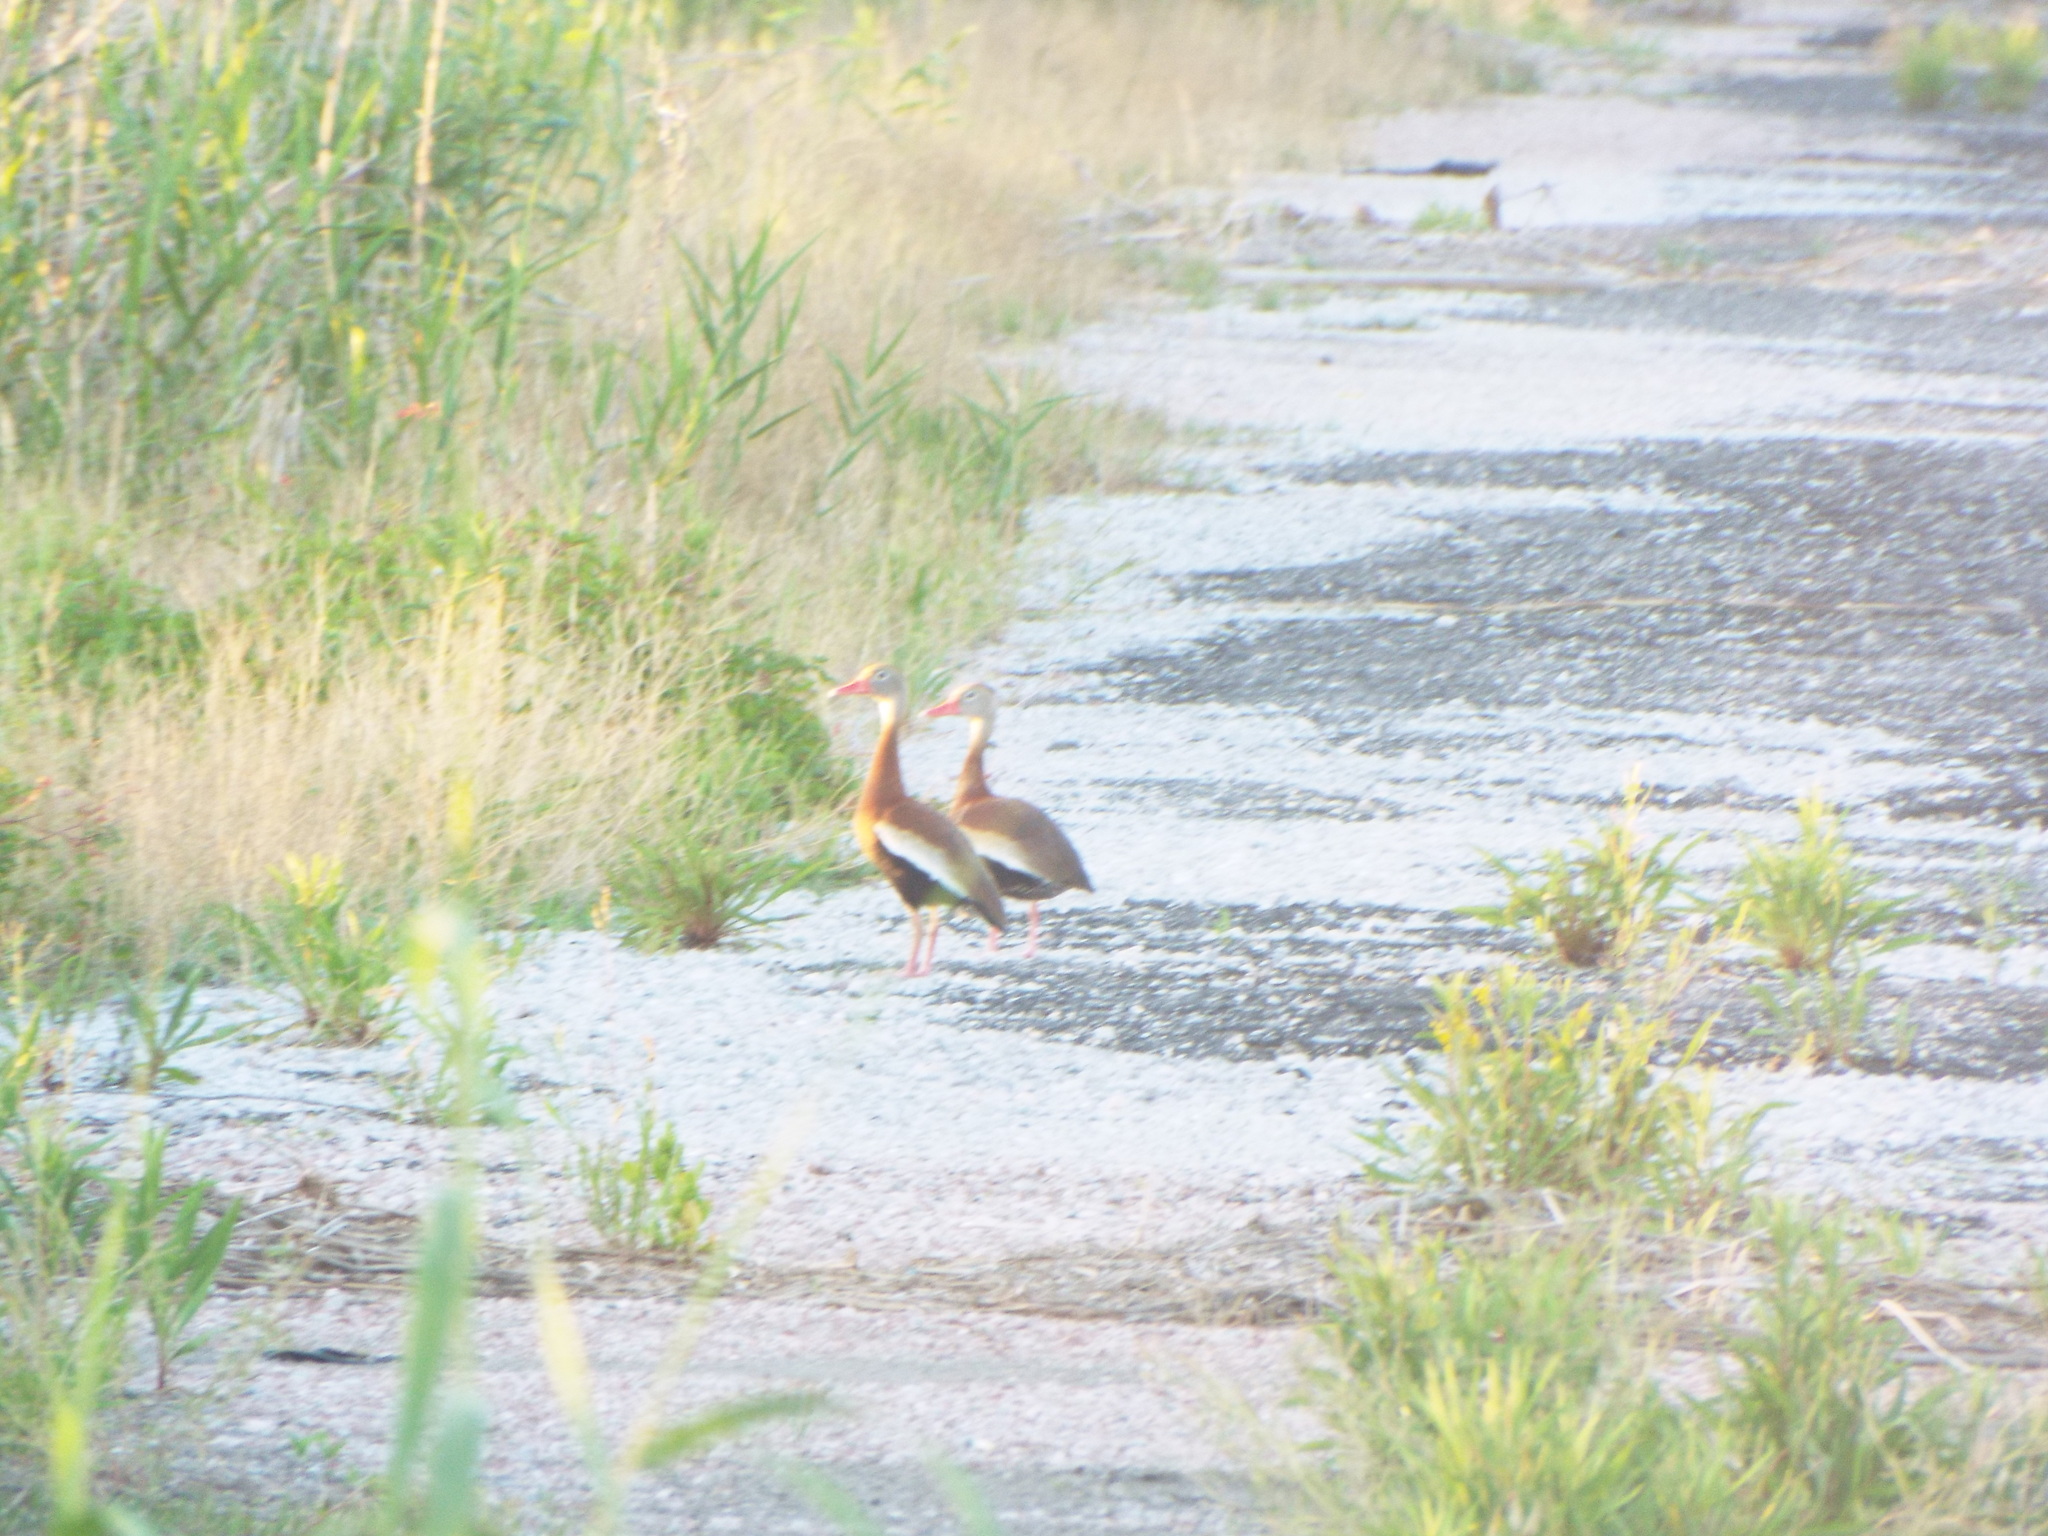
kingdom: Animalia
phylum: Chordata
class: Aves
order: Anseriformes
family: Anatidae
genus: Dendrocygna
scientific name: Dendrocygna autumnalis
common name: Black-bellied whistling duck
